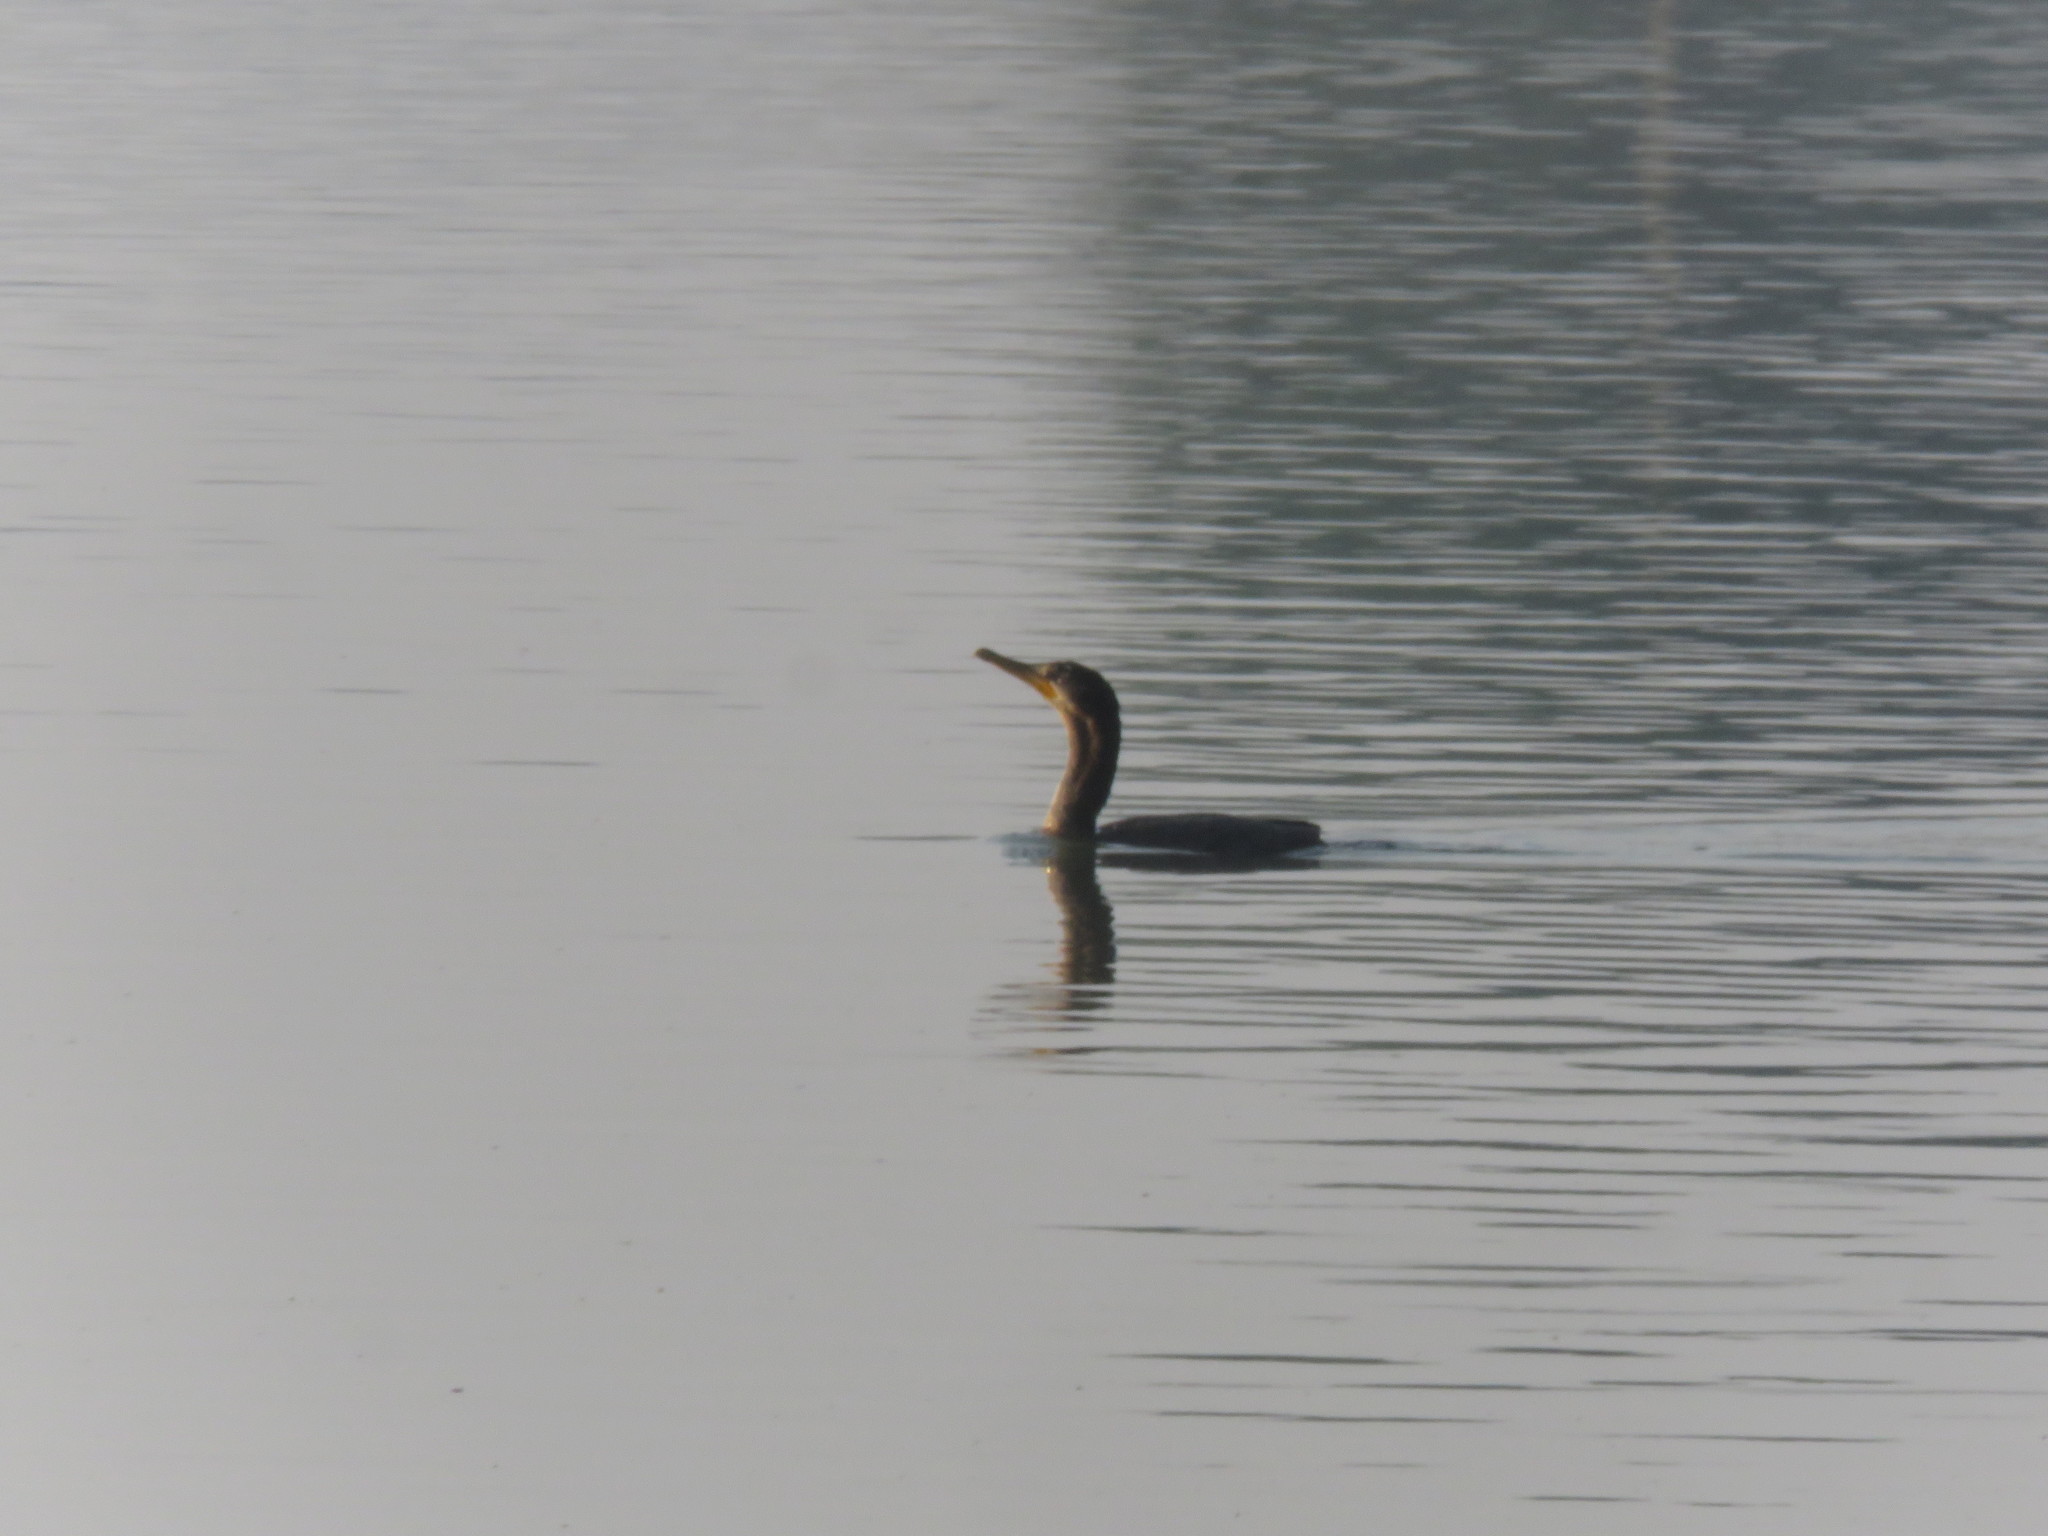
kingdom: Animalia
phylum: Chordata
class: Aves
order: Suliformes
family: Phalacrocoracidae
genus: Phalacrocorax
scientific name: Phalacrocorax brasilianus
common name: Neotropic cormorant
